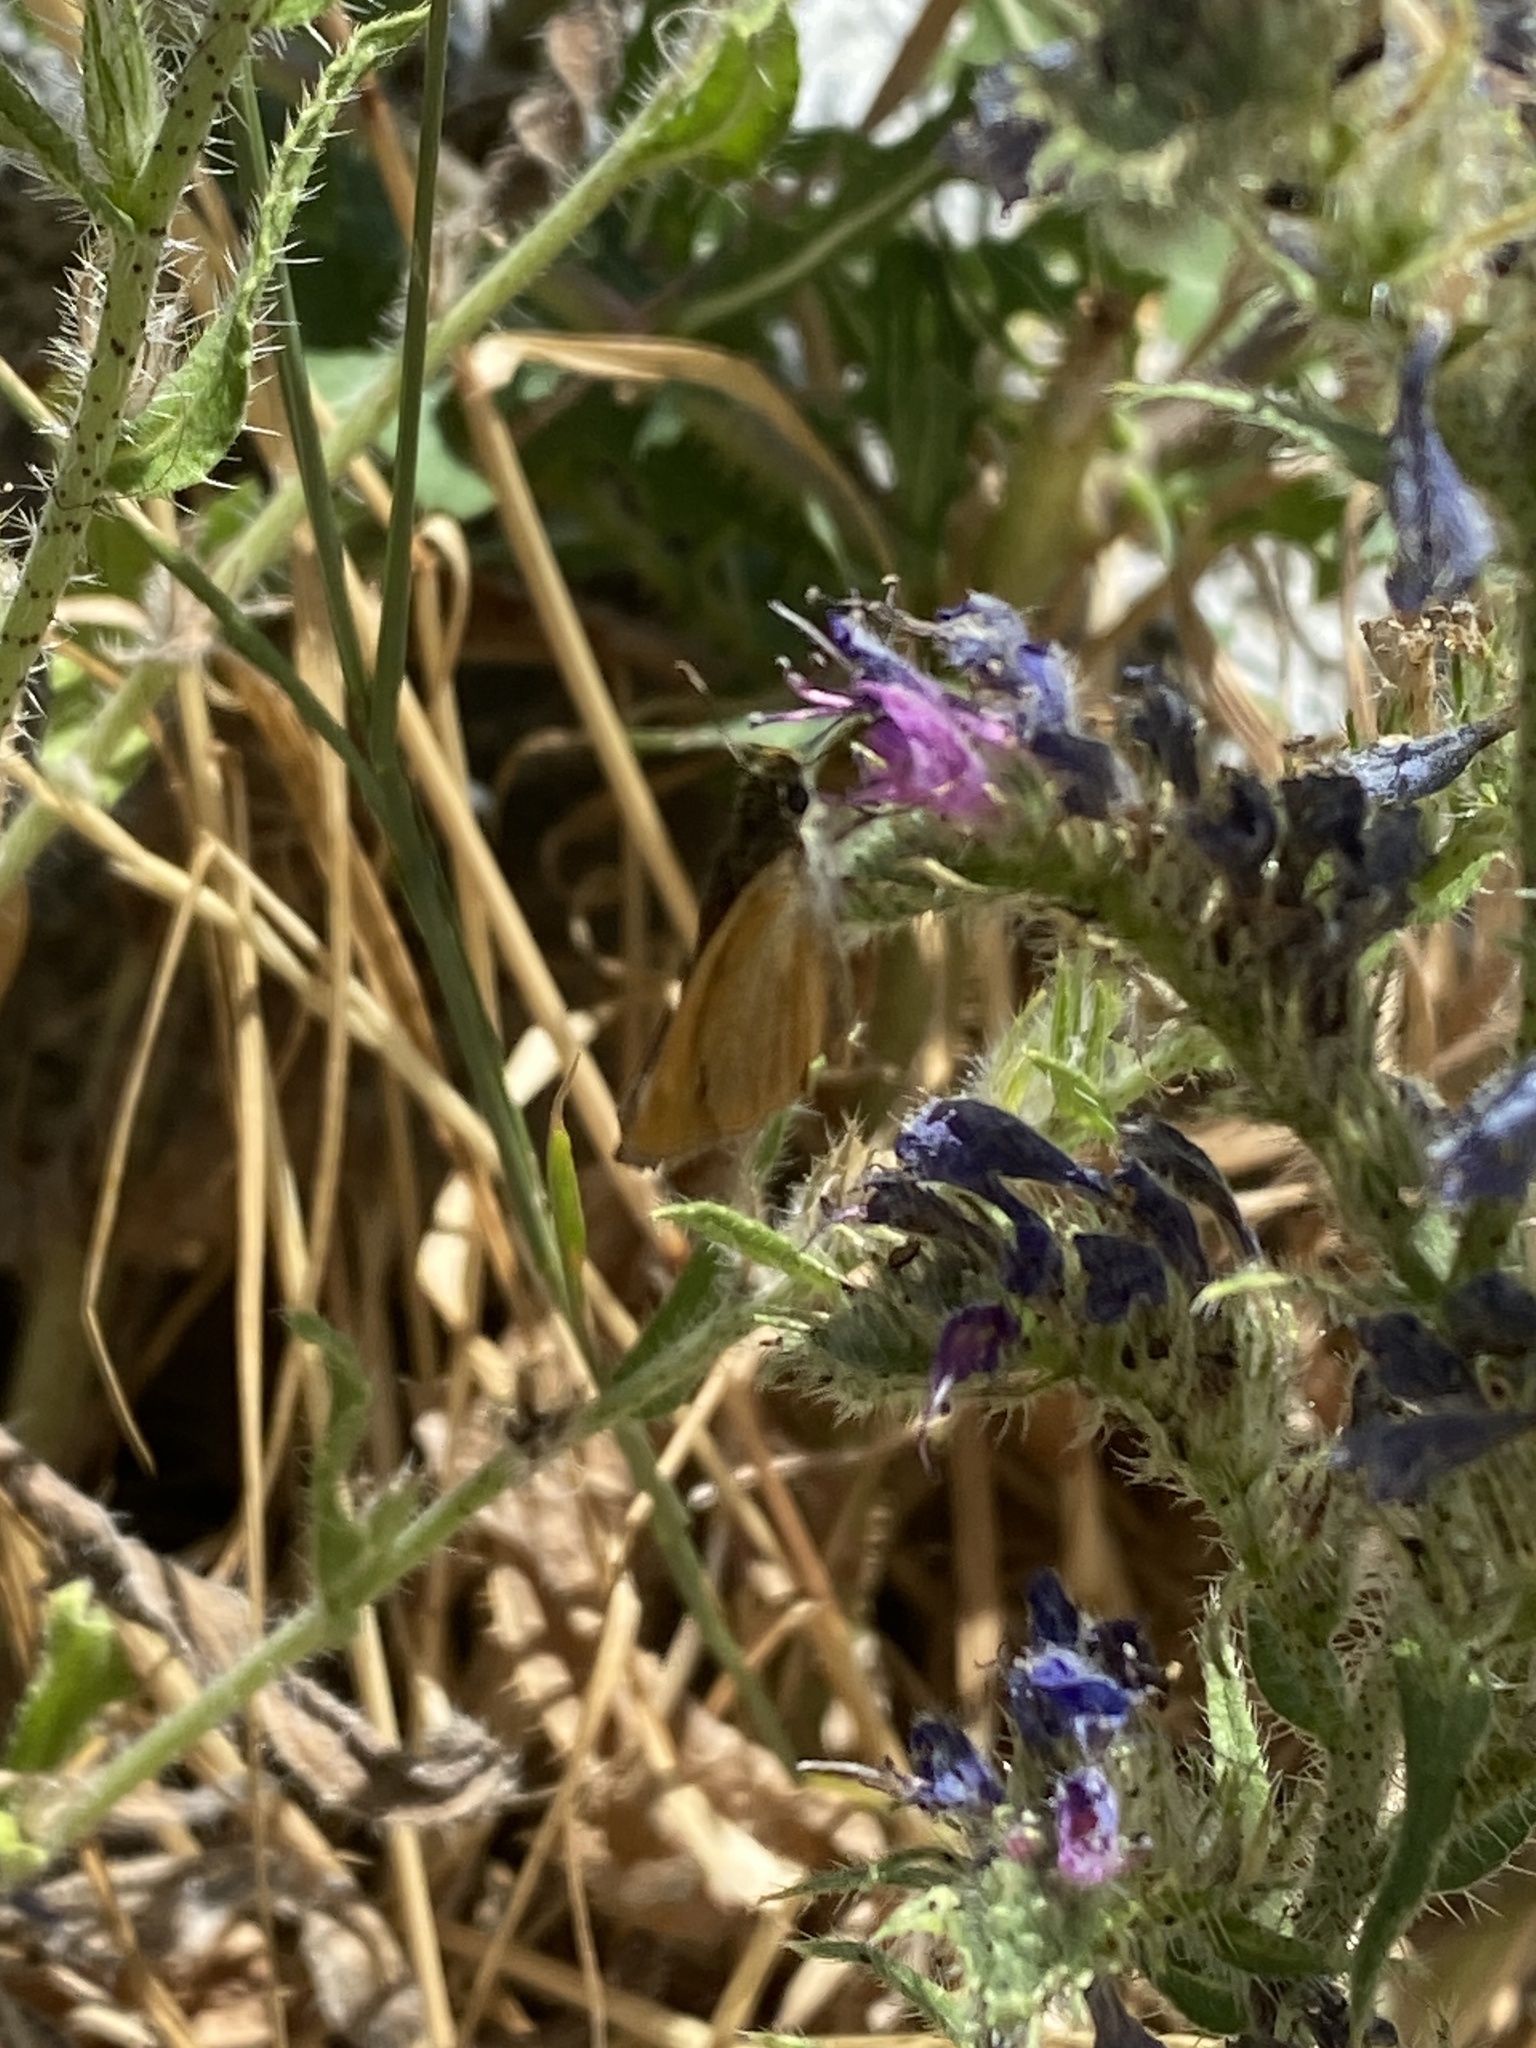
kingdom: Animalia
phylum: Arthropoda
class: Insecta
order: Lepidoptera
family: Hesperiidae
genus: Thymelicus
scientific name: Thymelicus acteon
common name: Lulworth skipper
